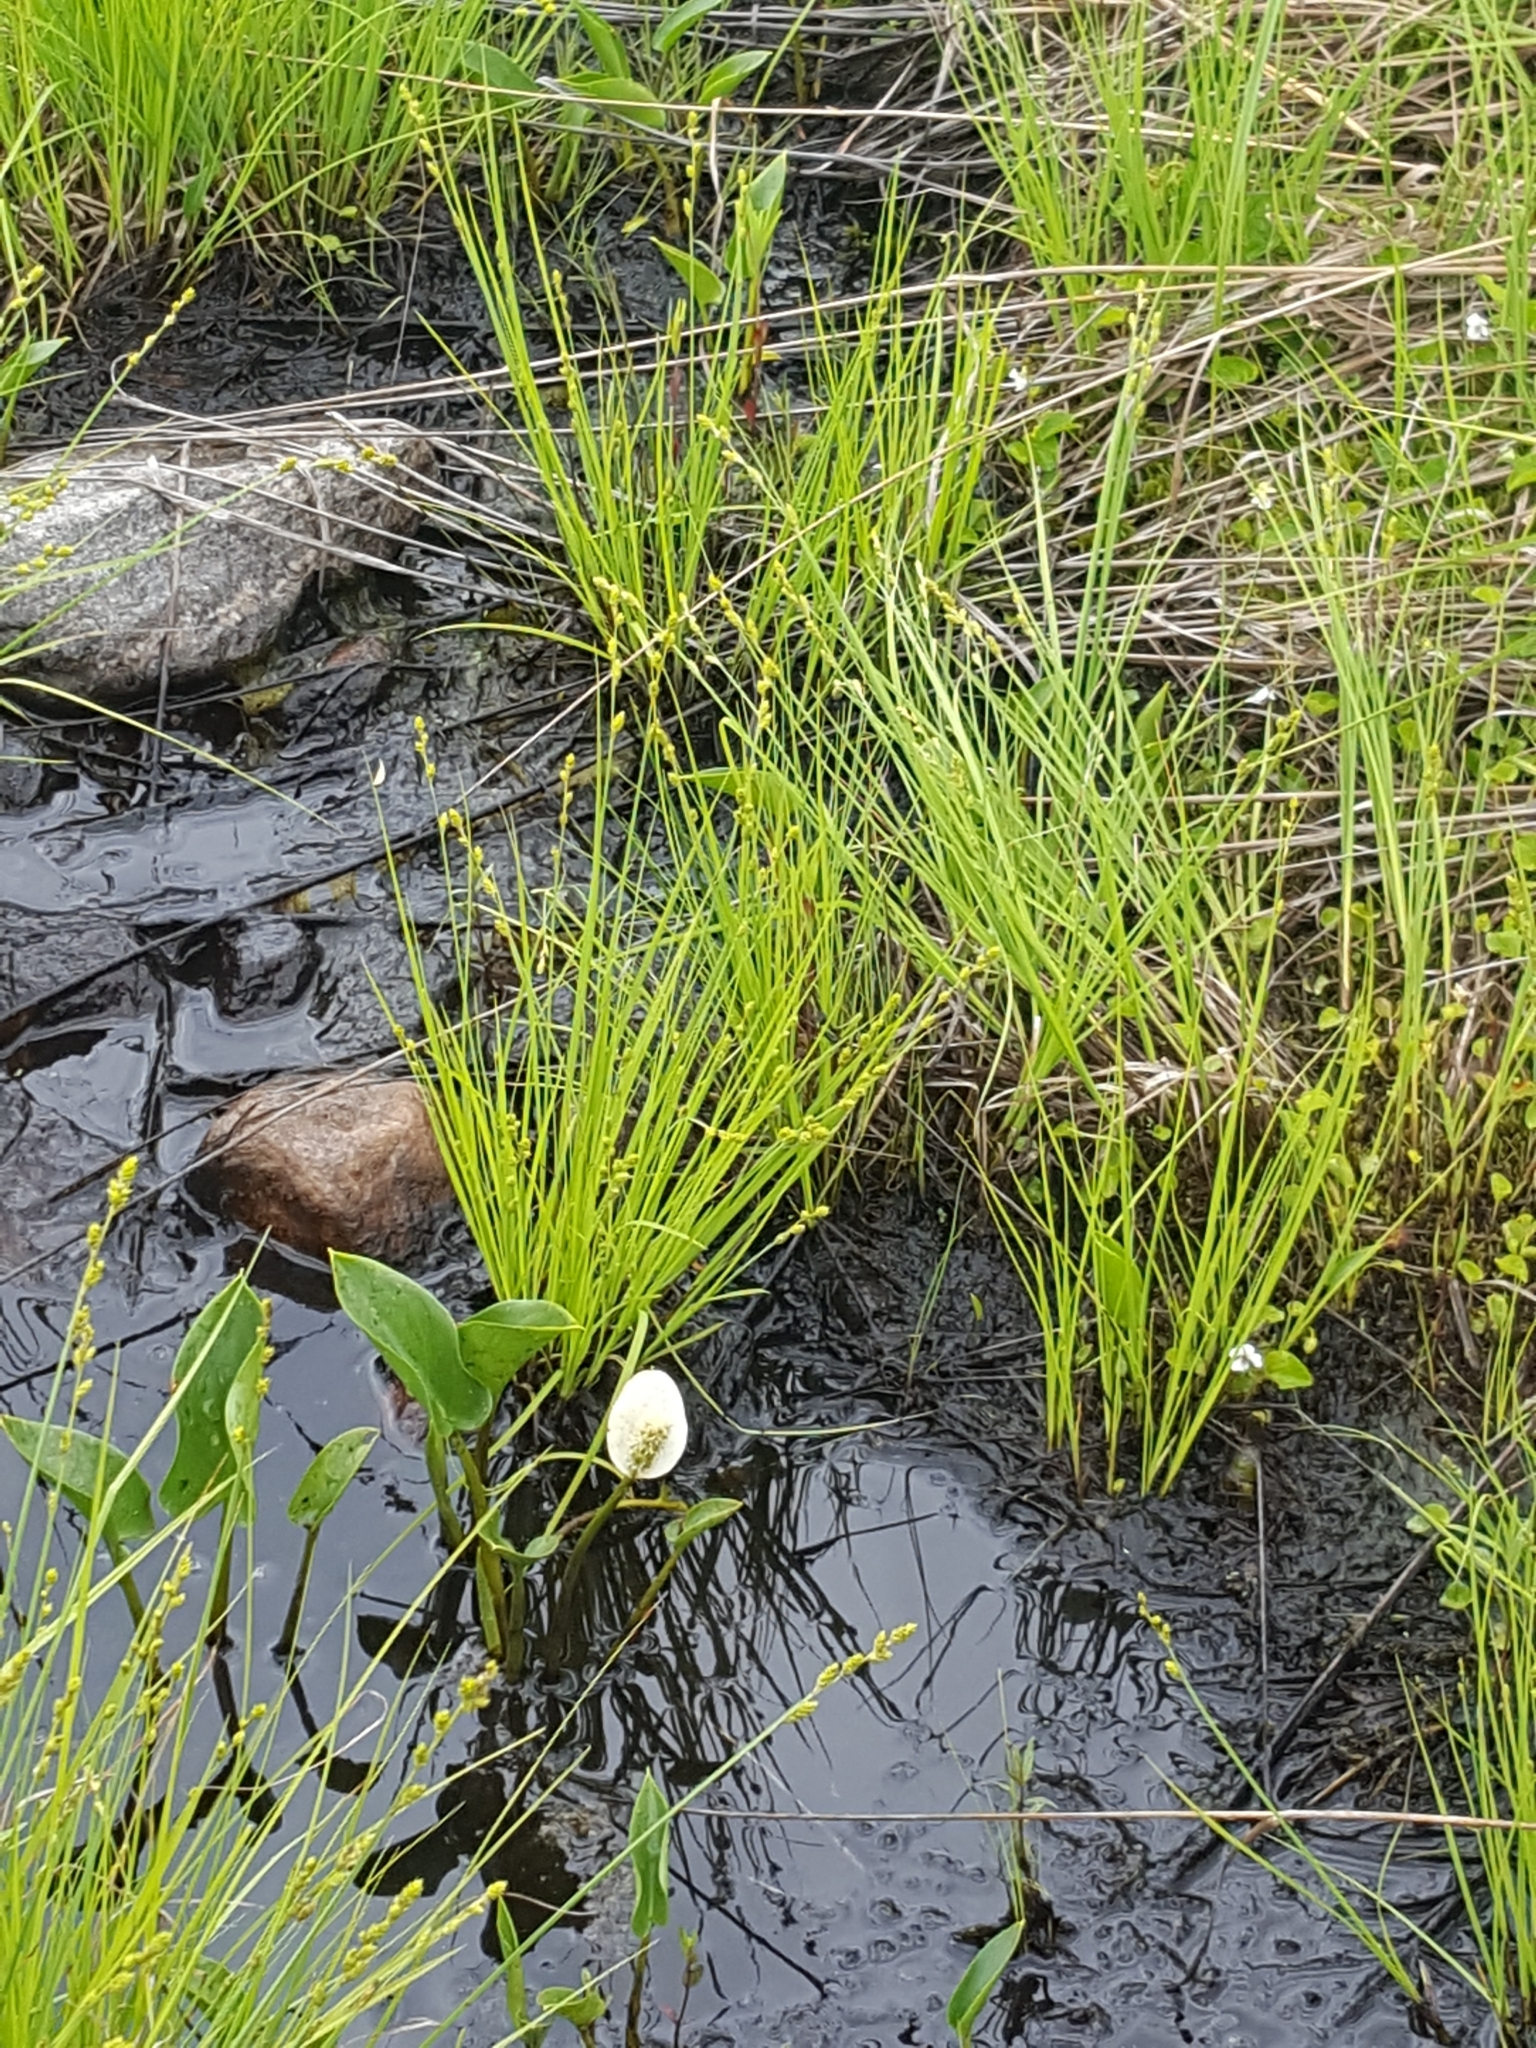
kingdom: Plantae
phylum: Tracheophyta
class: Liliopsida
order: Alismatales
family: Araceae
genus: Calla
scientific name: Calla palustris
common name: Bog arum
